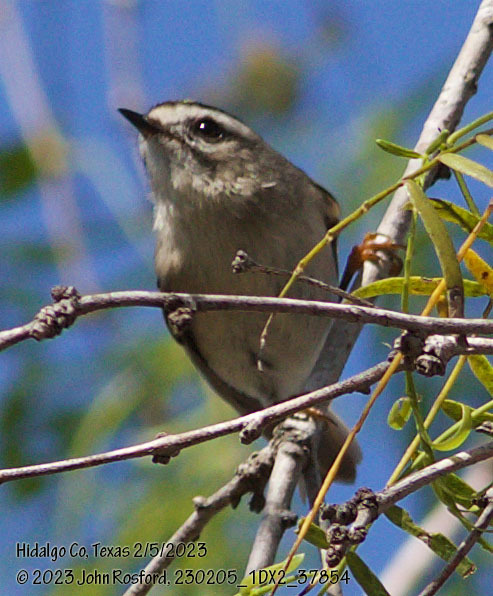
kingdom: Animalia
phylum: Chordata
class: Aves
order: Passeriformes
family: Regulidae
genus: Regulus
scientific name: Regulus satrapa
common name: Golden-crowned kinglet
